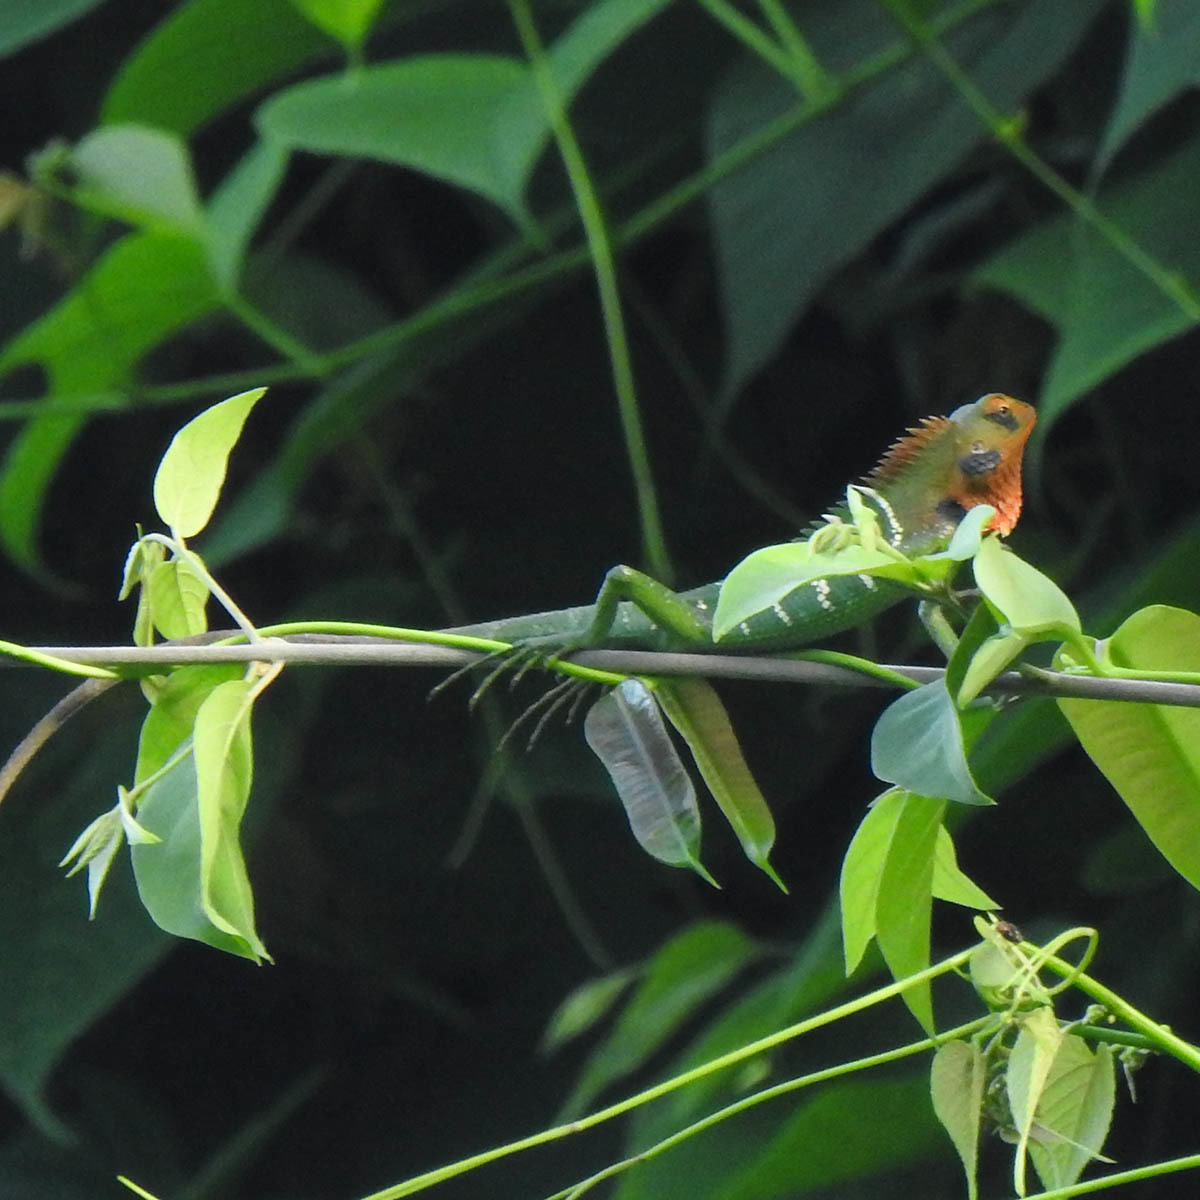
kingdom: Animalia
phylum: Chordata
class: Squamata
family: Agamidae
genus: Calotes
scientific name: Calotes calotes
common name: Common green forest lizard
